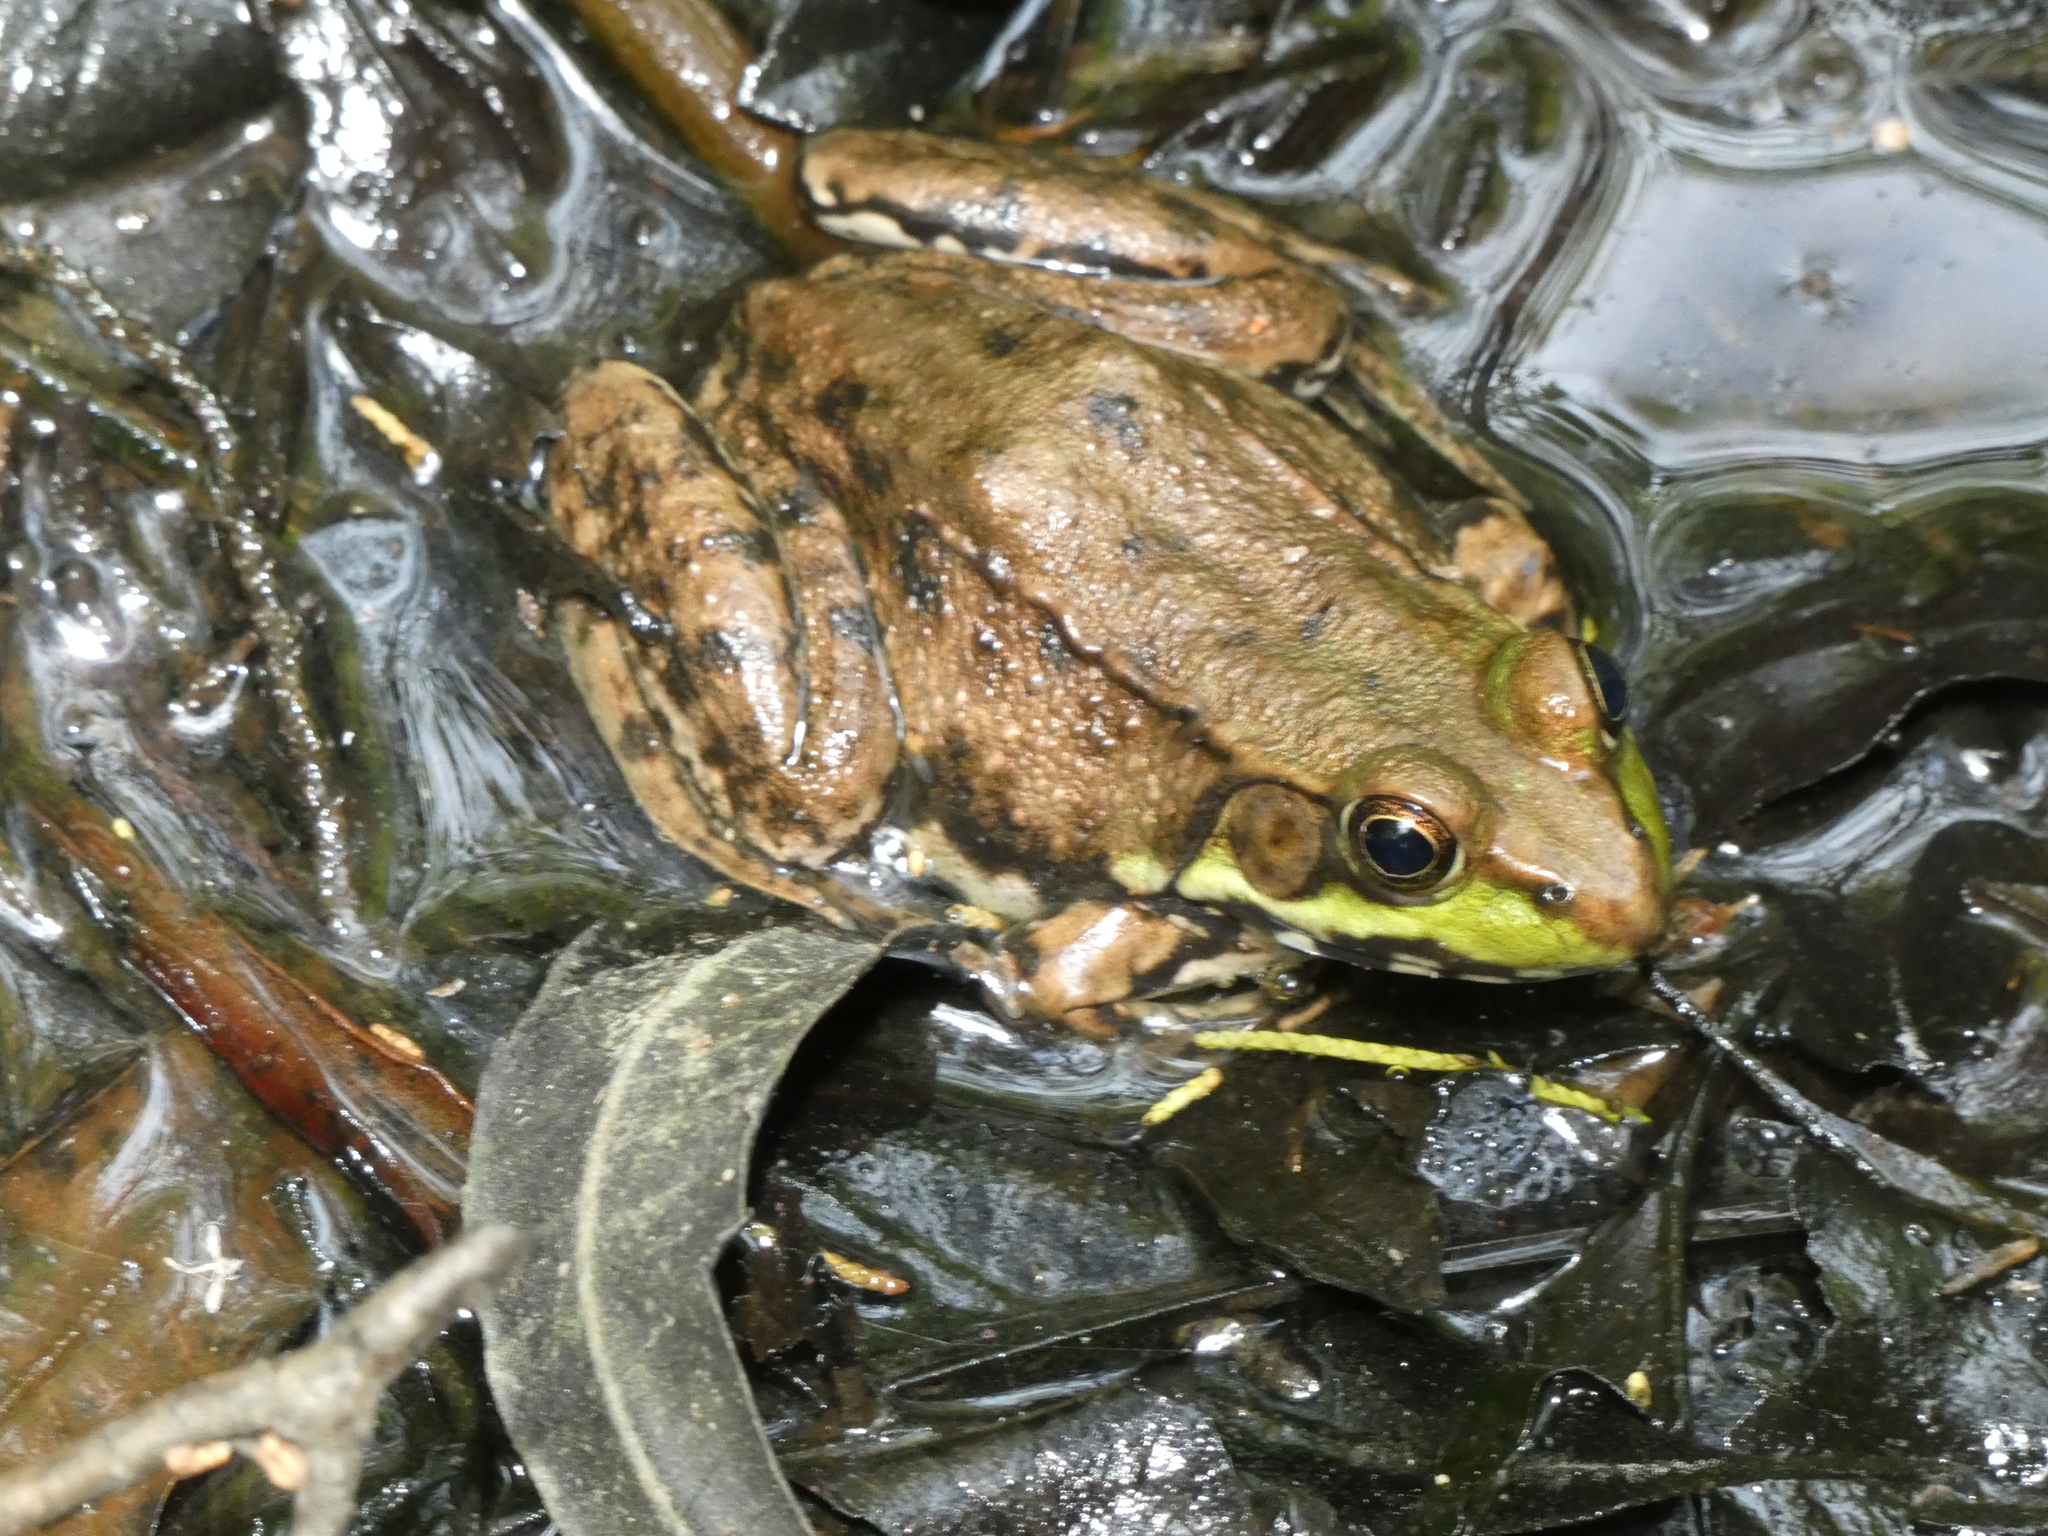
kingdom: Animalia
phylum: Chordata
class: Amphibia
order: Anura
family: Ranidae
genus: Lithobates
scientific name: Lithobates clamitans
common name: Green frog
